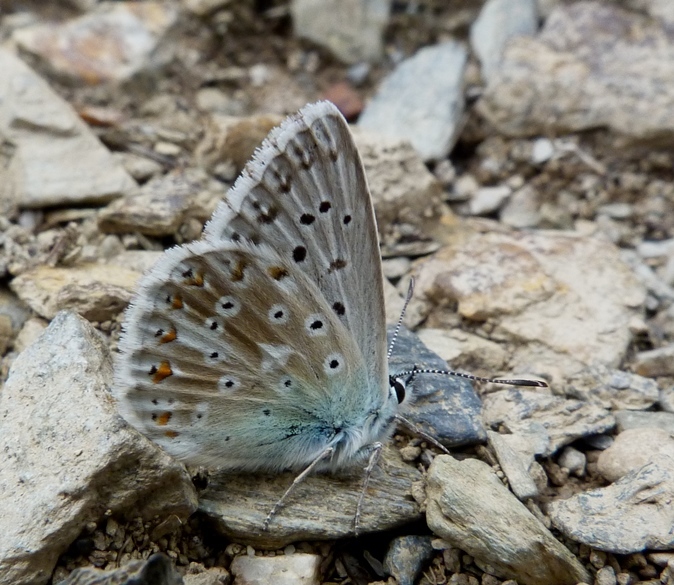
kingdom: Animalia
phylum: Arthropoda
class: Insecta
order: Lepidoptera
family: Lycaenidae
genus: Lysandra
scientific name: Lysandra coridon
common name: Chalkhill blue
